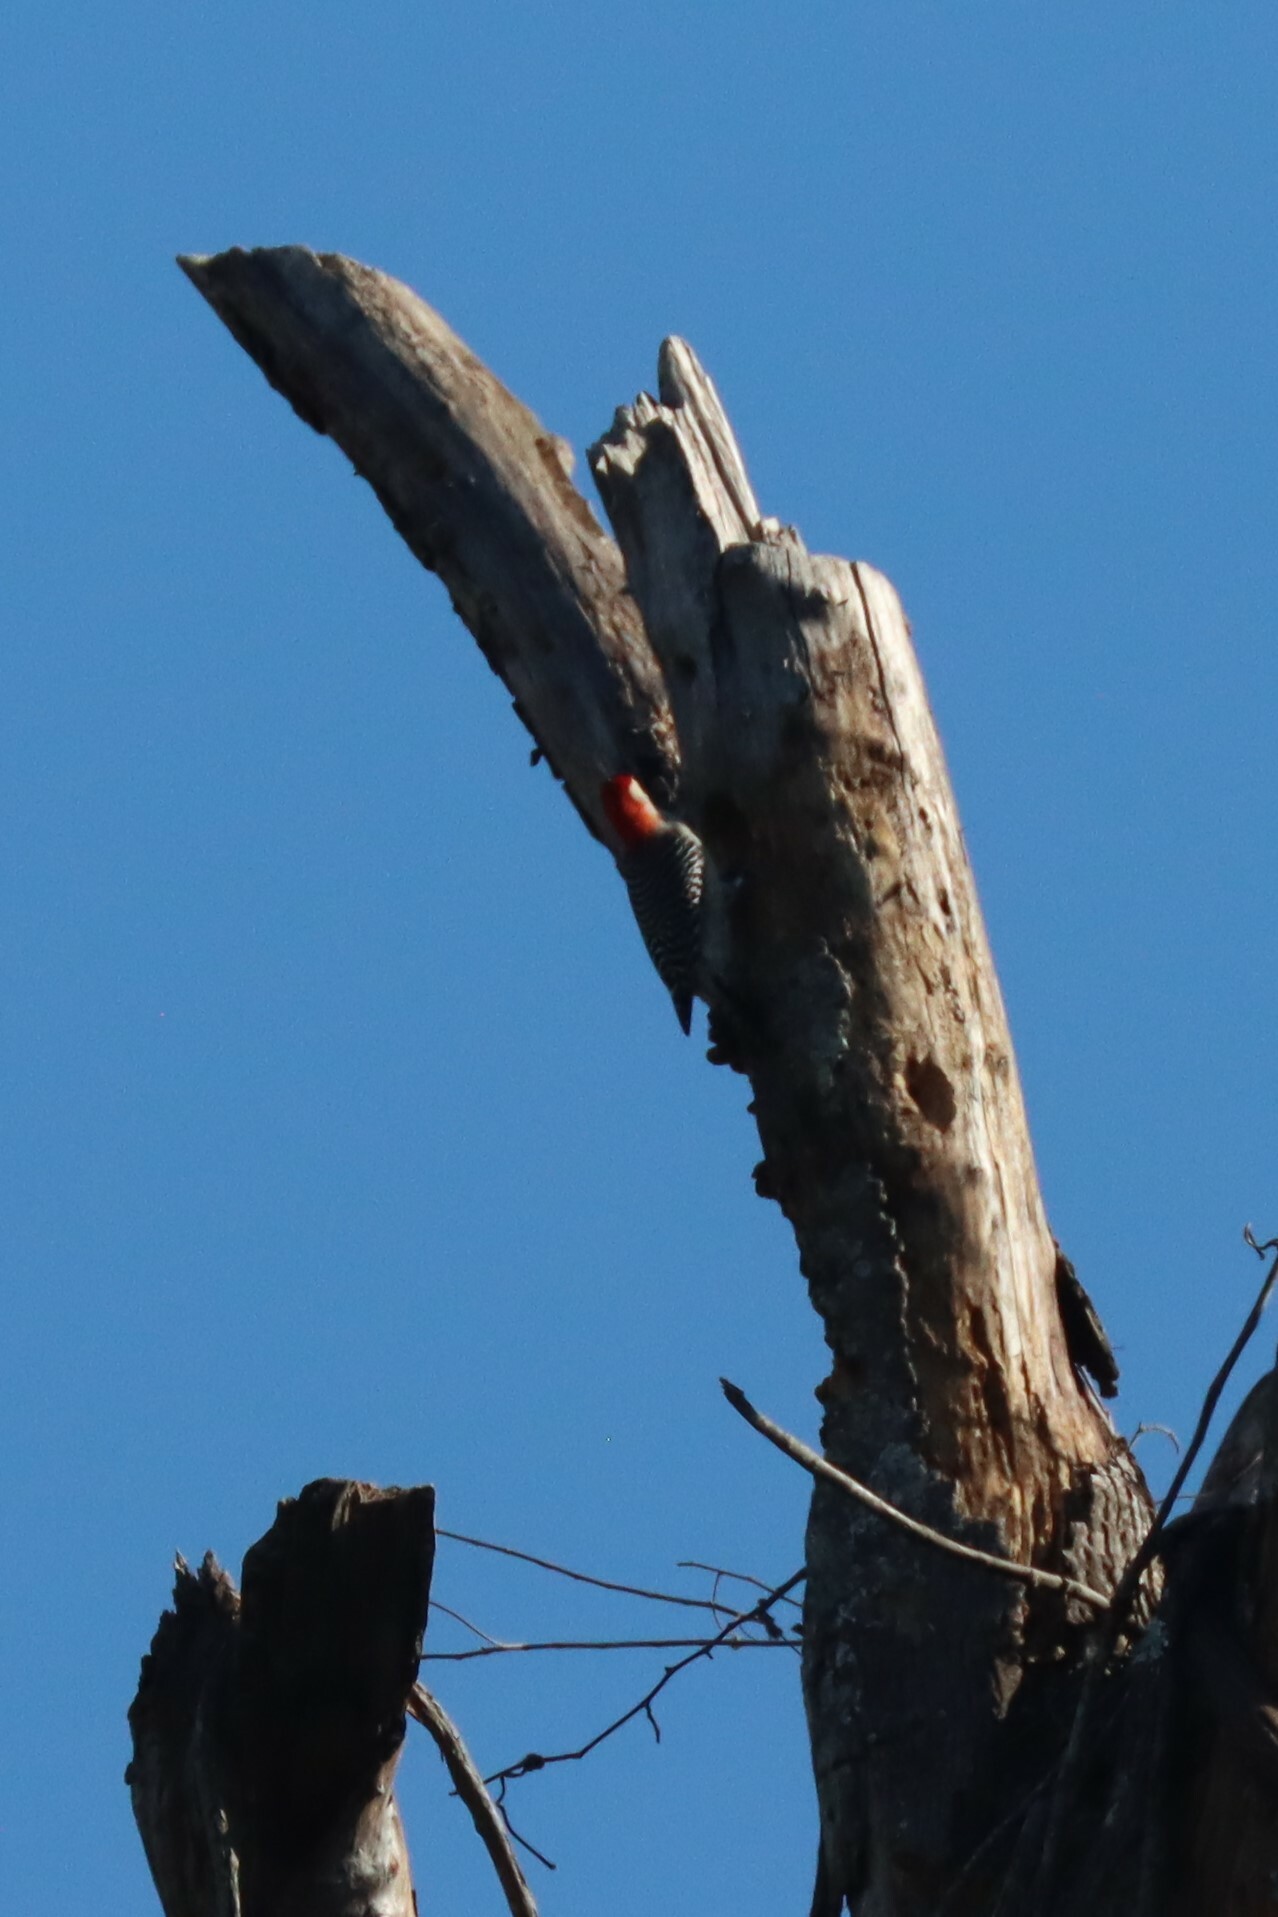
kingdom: Animalia
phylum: Chordata
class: Aves
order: Piciformes
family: Picidae
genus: Melanerpes
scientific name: Melanerpes carolinus
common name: Red-bellied woodpecker
